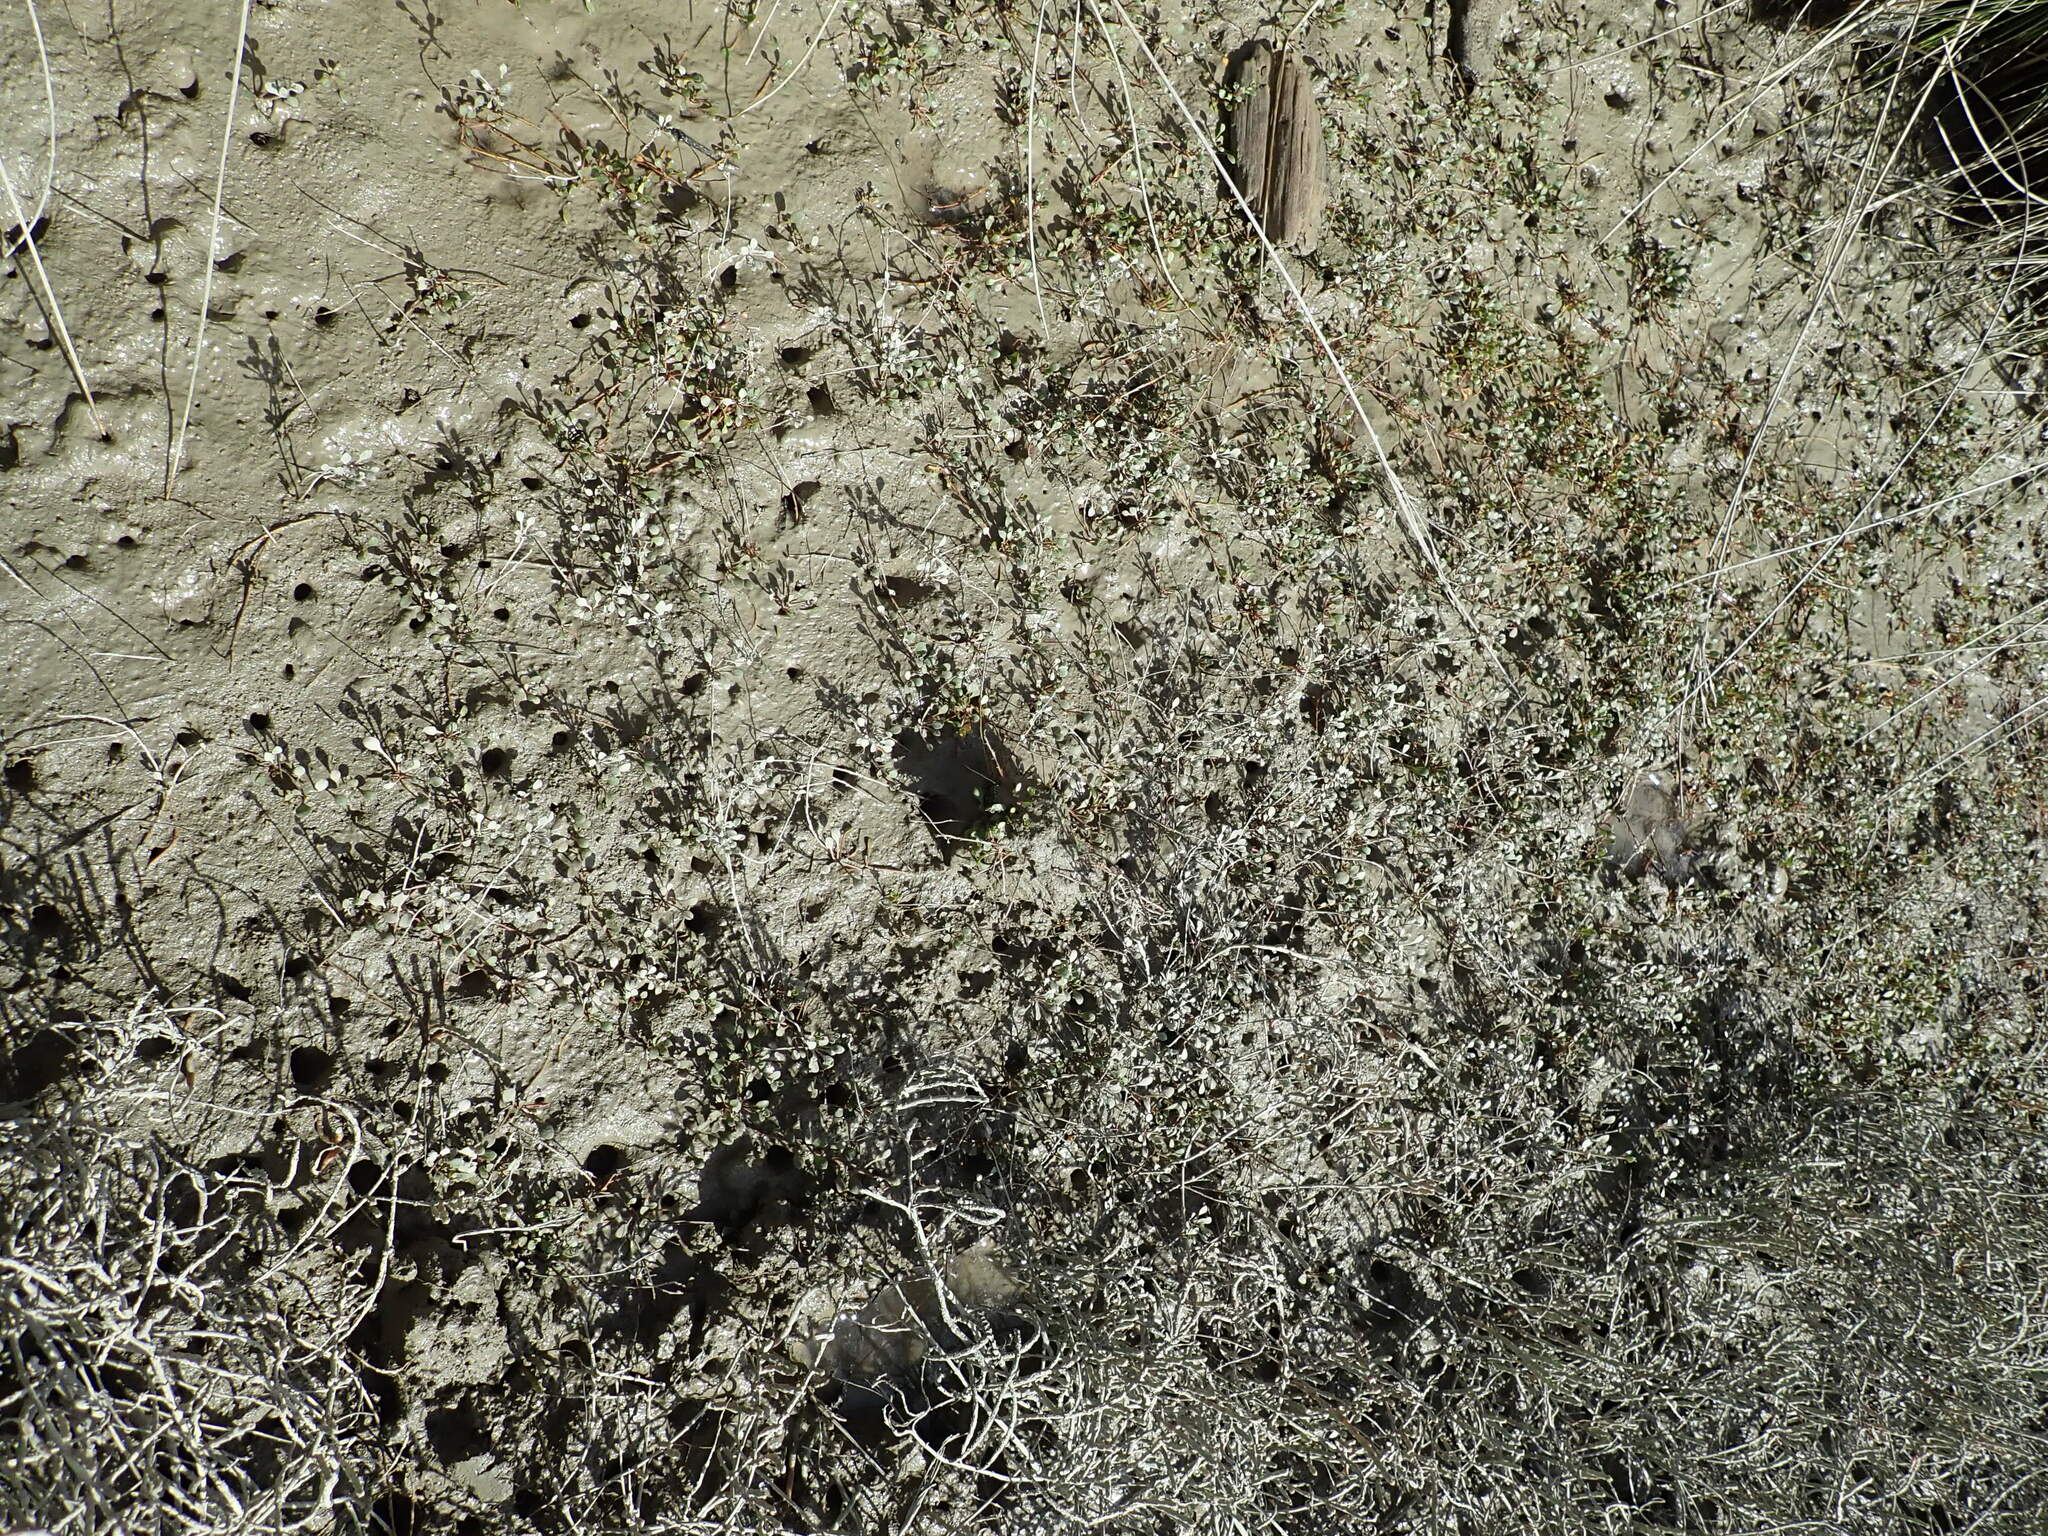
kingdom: Plantae
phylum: Tracheophyta
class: Magnoliopsida
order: Ericales
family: Primulaceae
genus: Samolus
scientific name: Samolus repens
